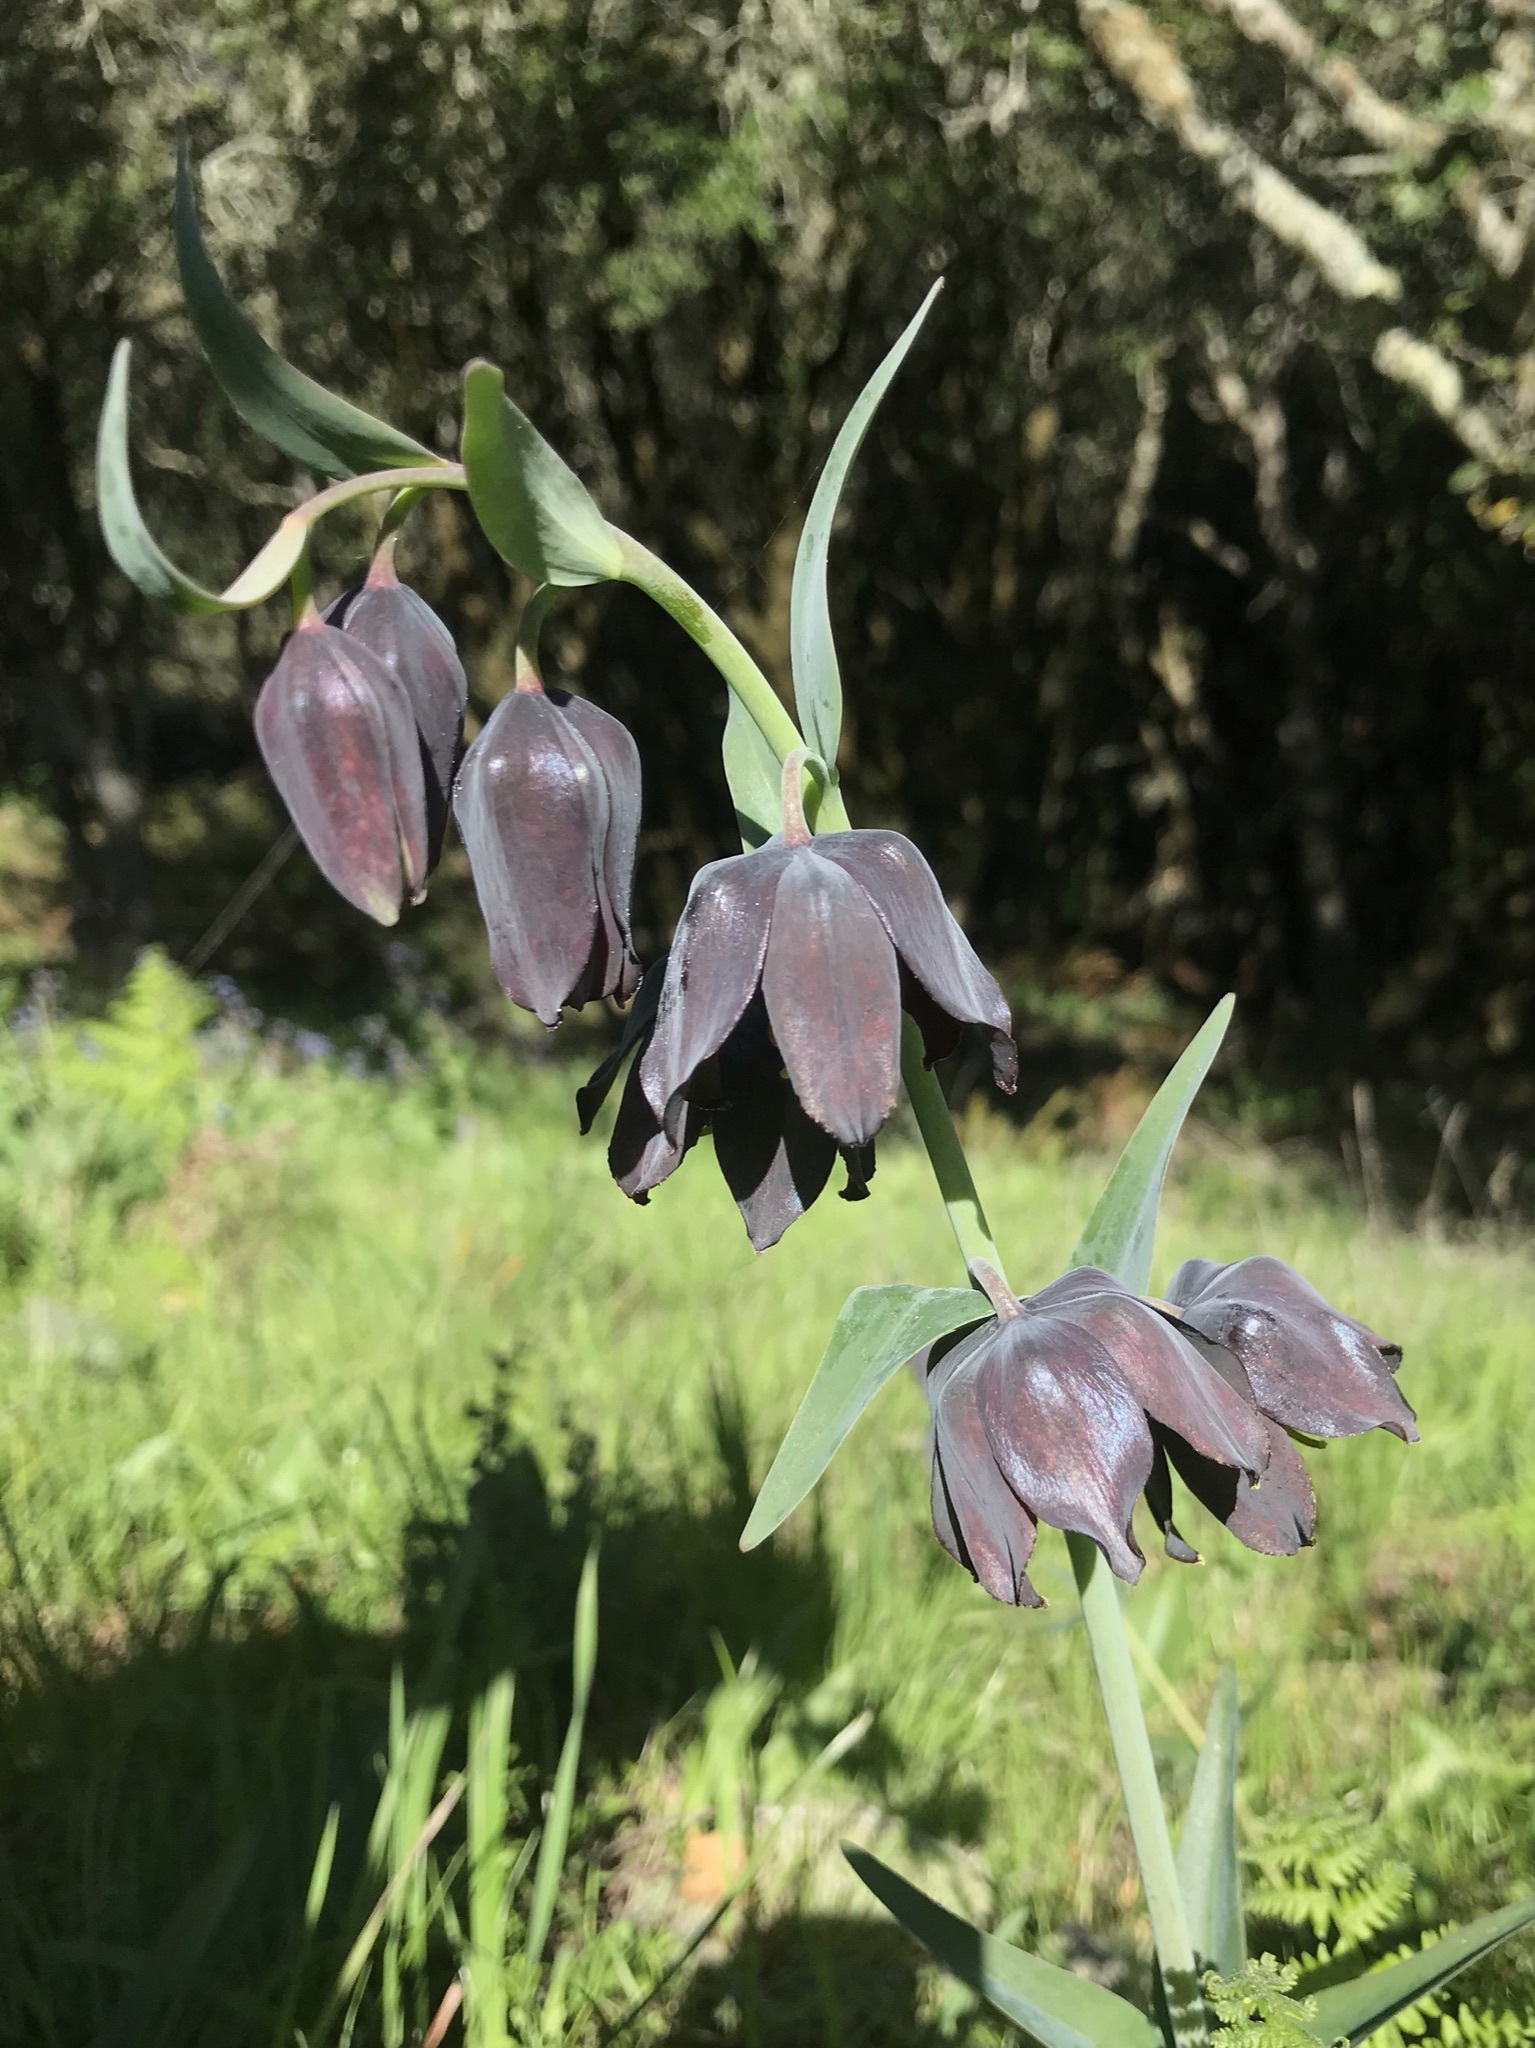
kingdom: Plantae
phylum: Tracheophyta
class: Liliopsida
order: Liliales
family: Liliaceae
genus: Fritillaria
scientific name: Fritillaria affinis
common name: Ojai fritillary
